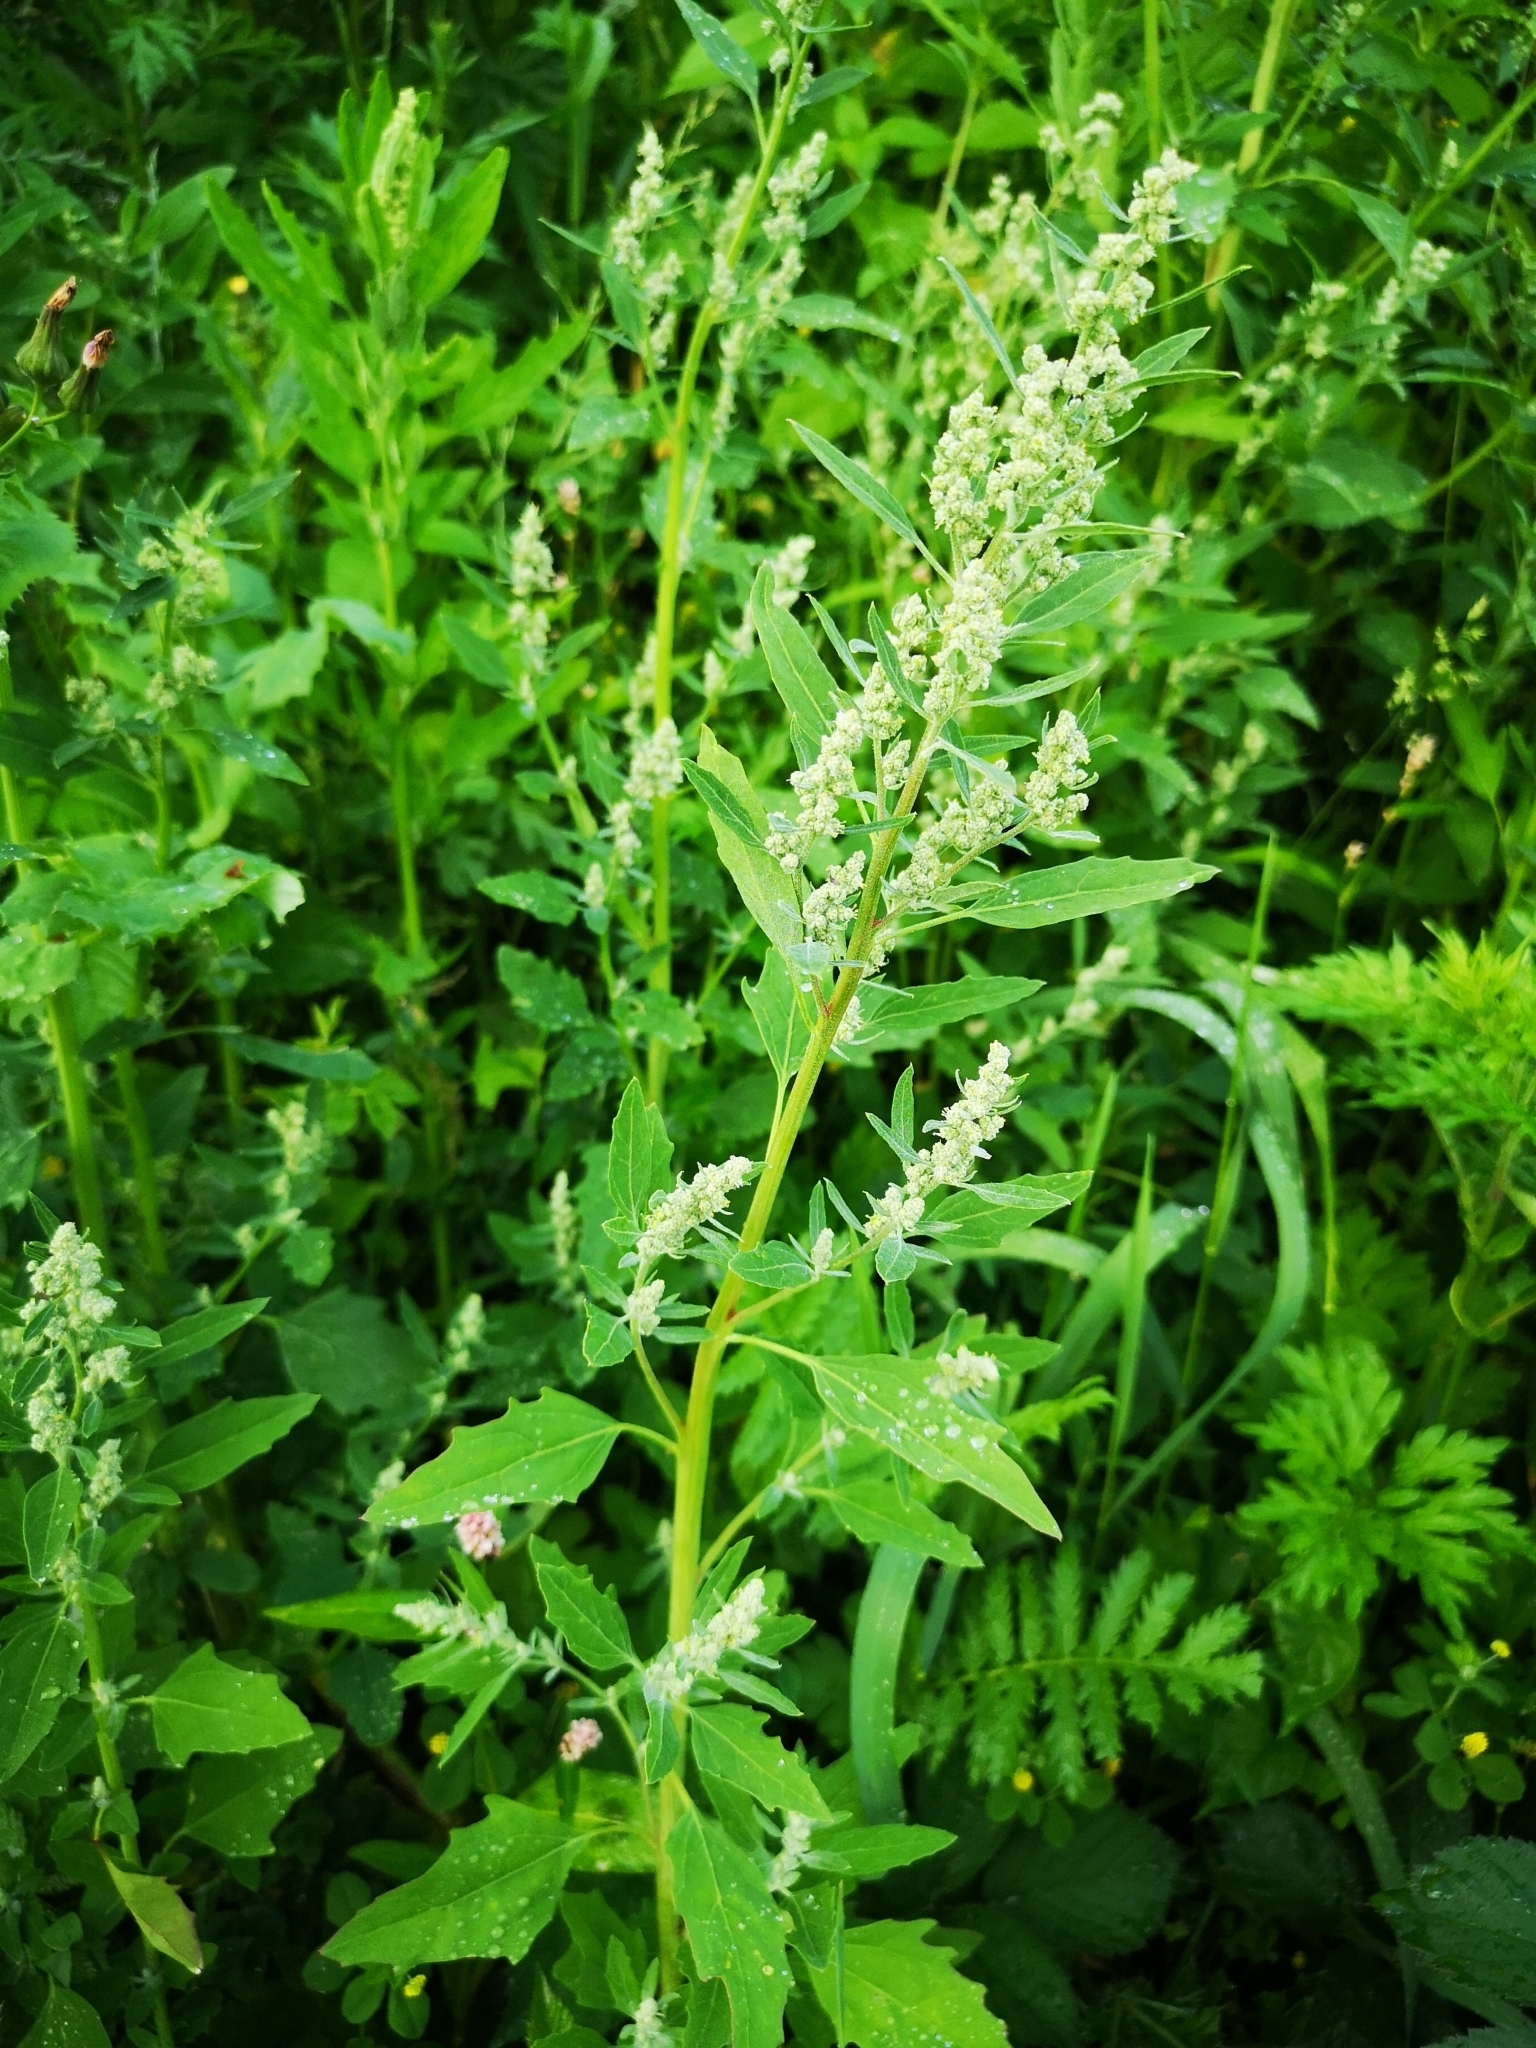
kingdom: Plantae
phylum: Tracheophyta
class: Magnoliopsida
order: Caryophyllales
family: Amaranthaceae
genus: Chenopodium
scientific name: Chenopodium album
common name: Fat-hen
